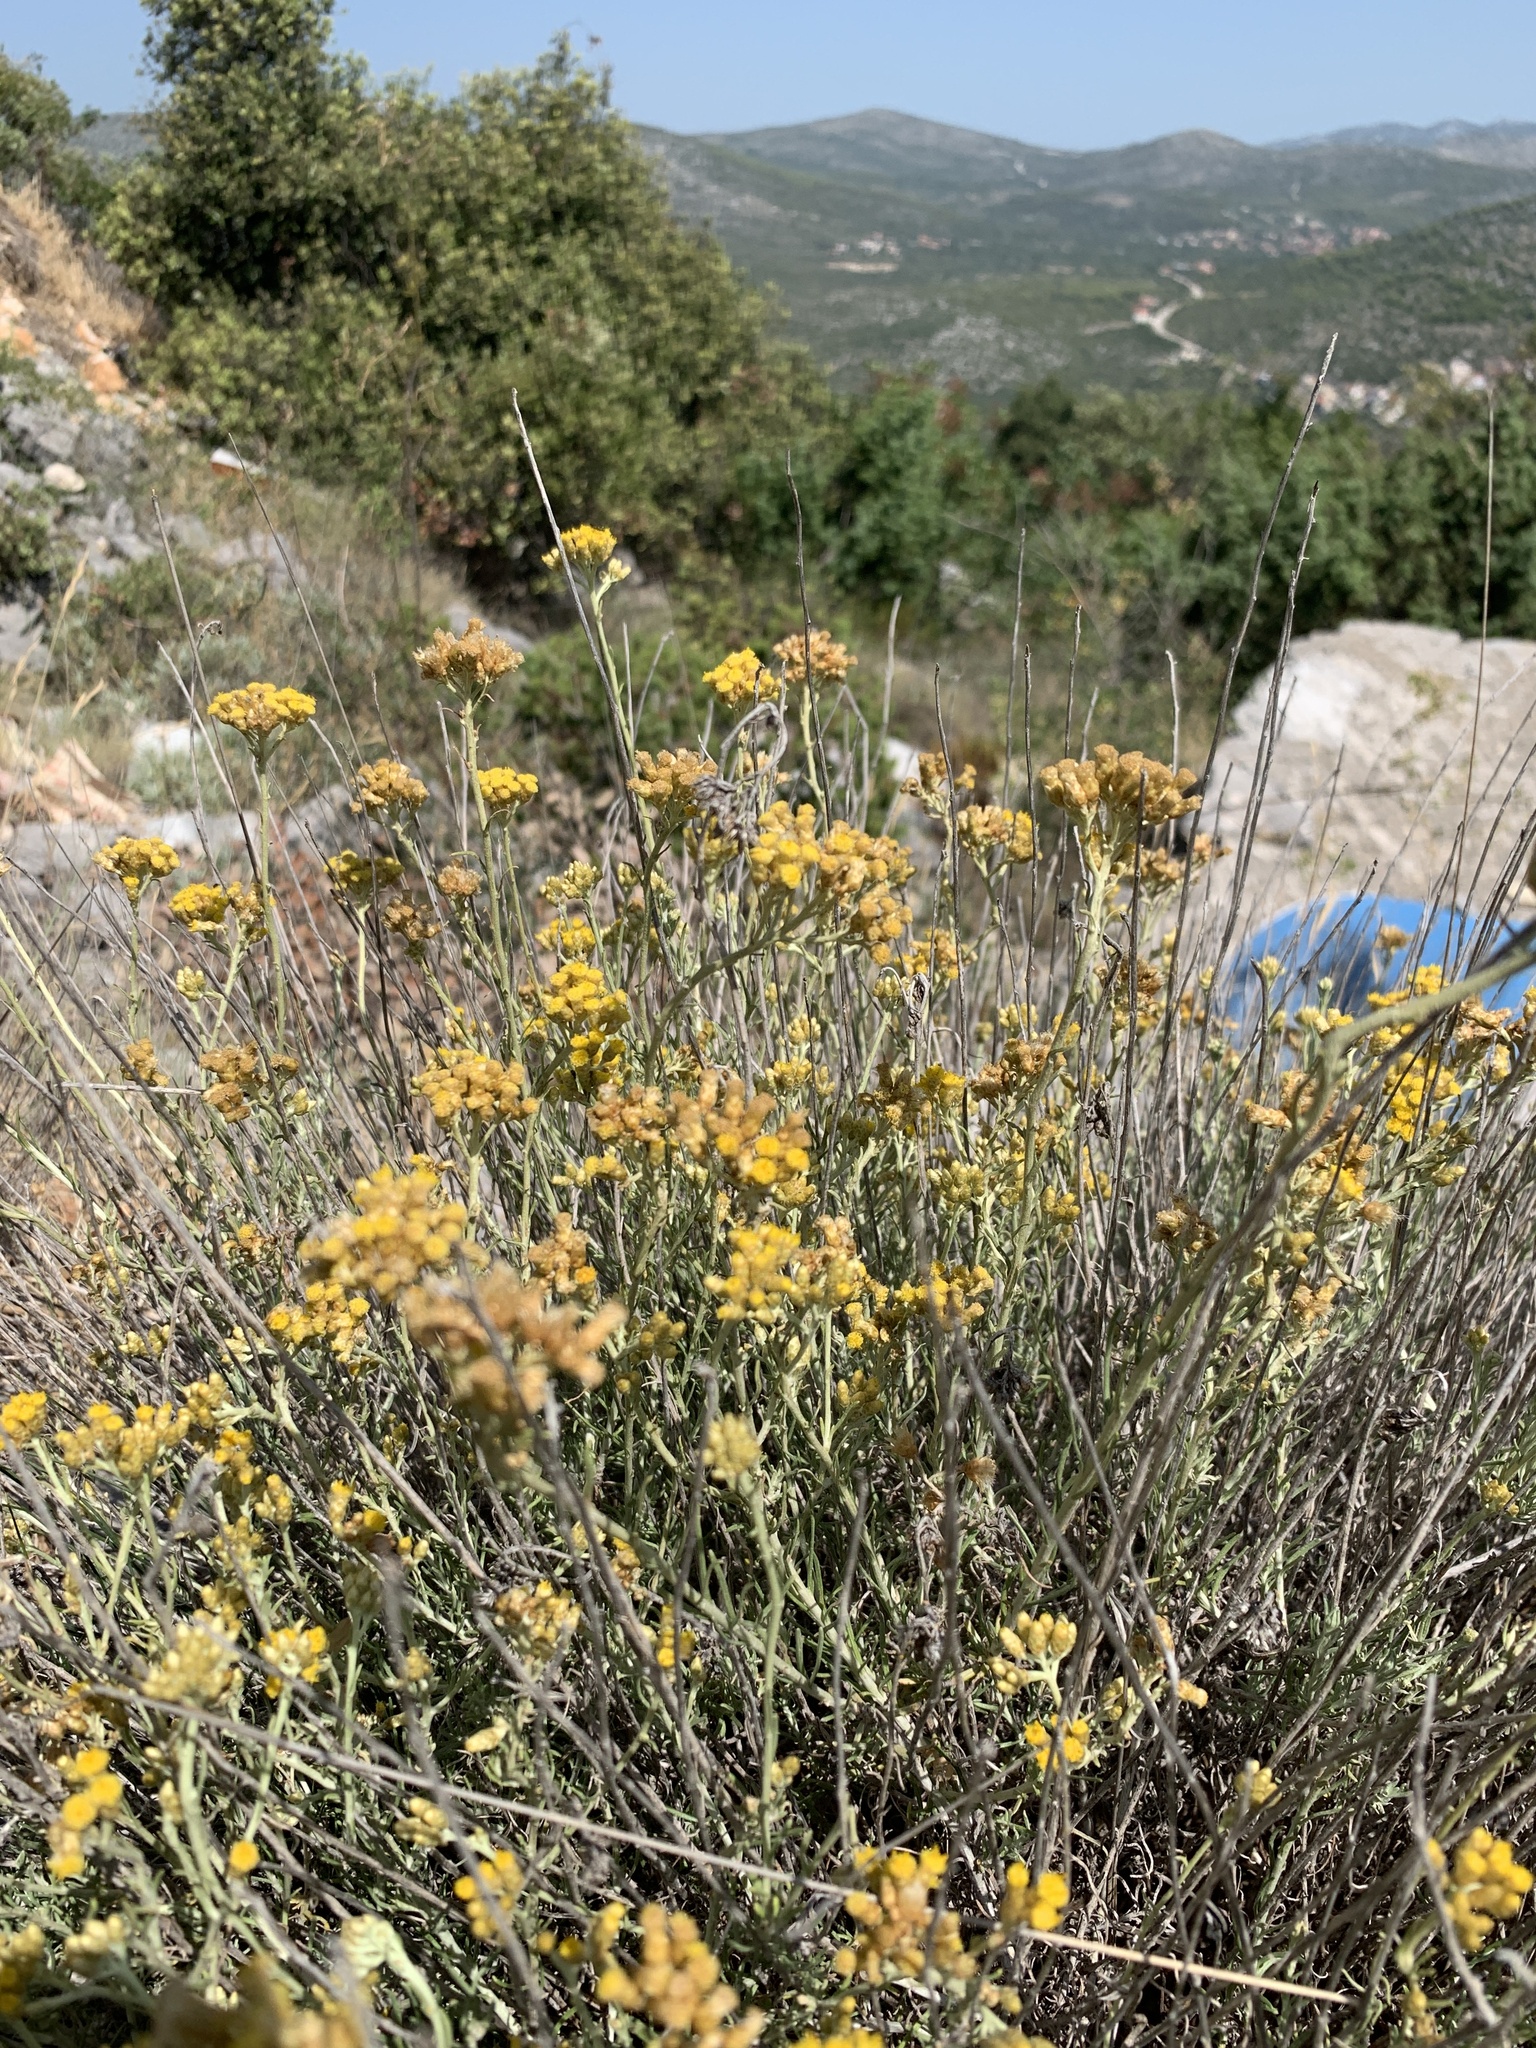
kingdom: Plantae
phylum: Tracheophyta
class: Magnoliopsida
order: Asterales
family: Asteraceae
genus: Helichrysum
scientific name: Helichrysum italicum
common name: Curryplant
